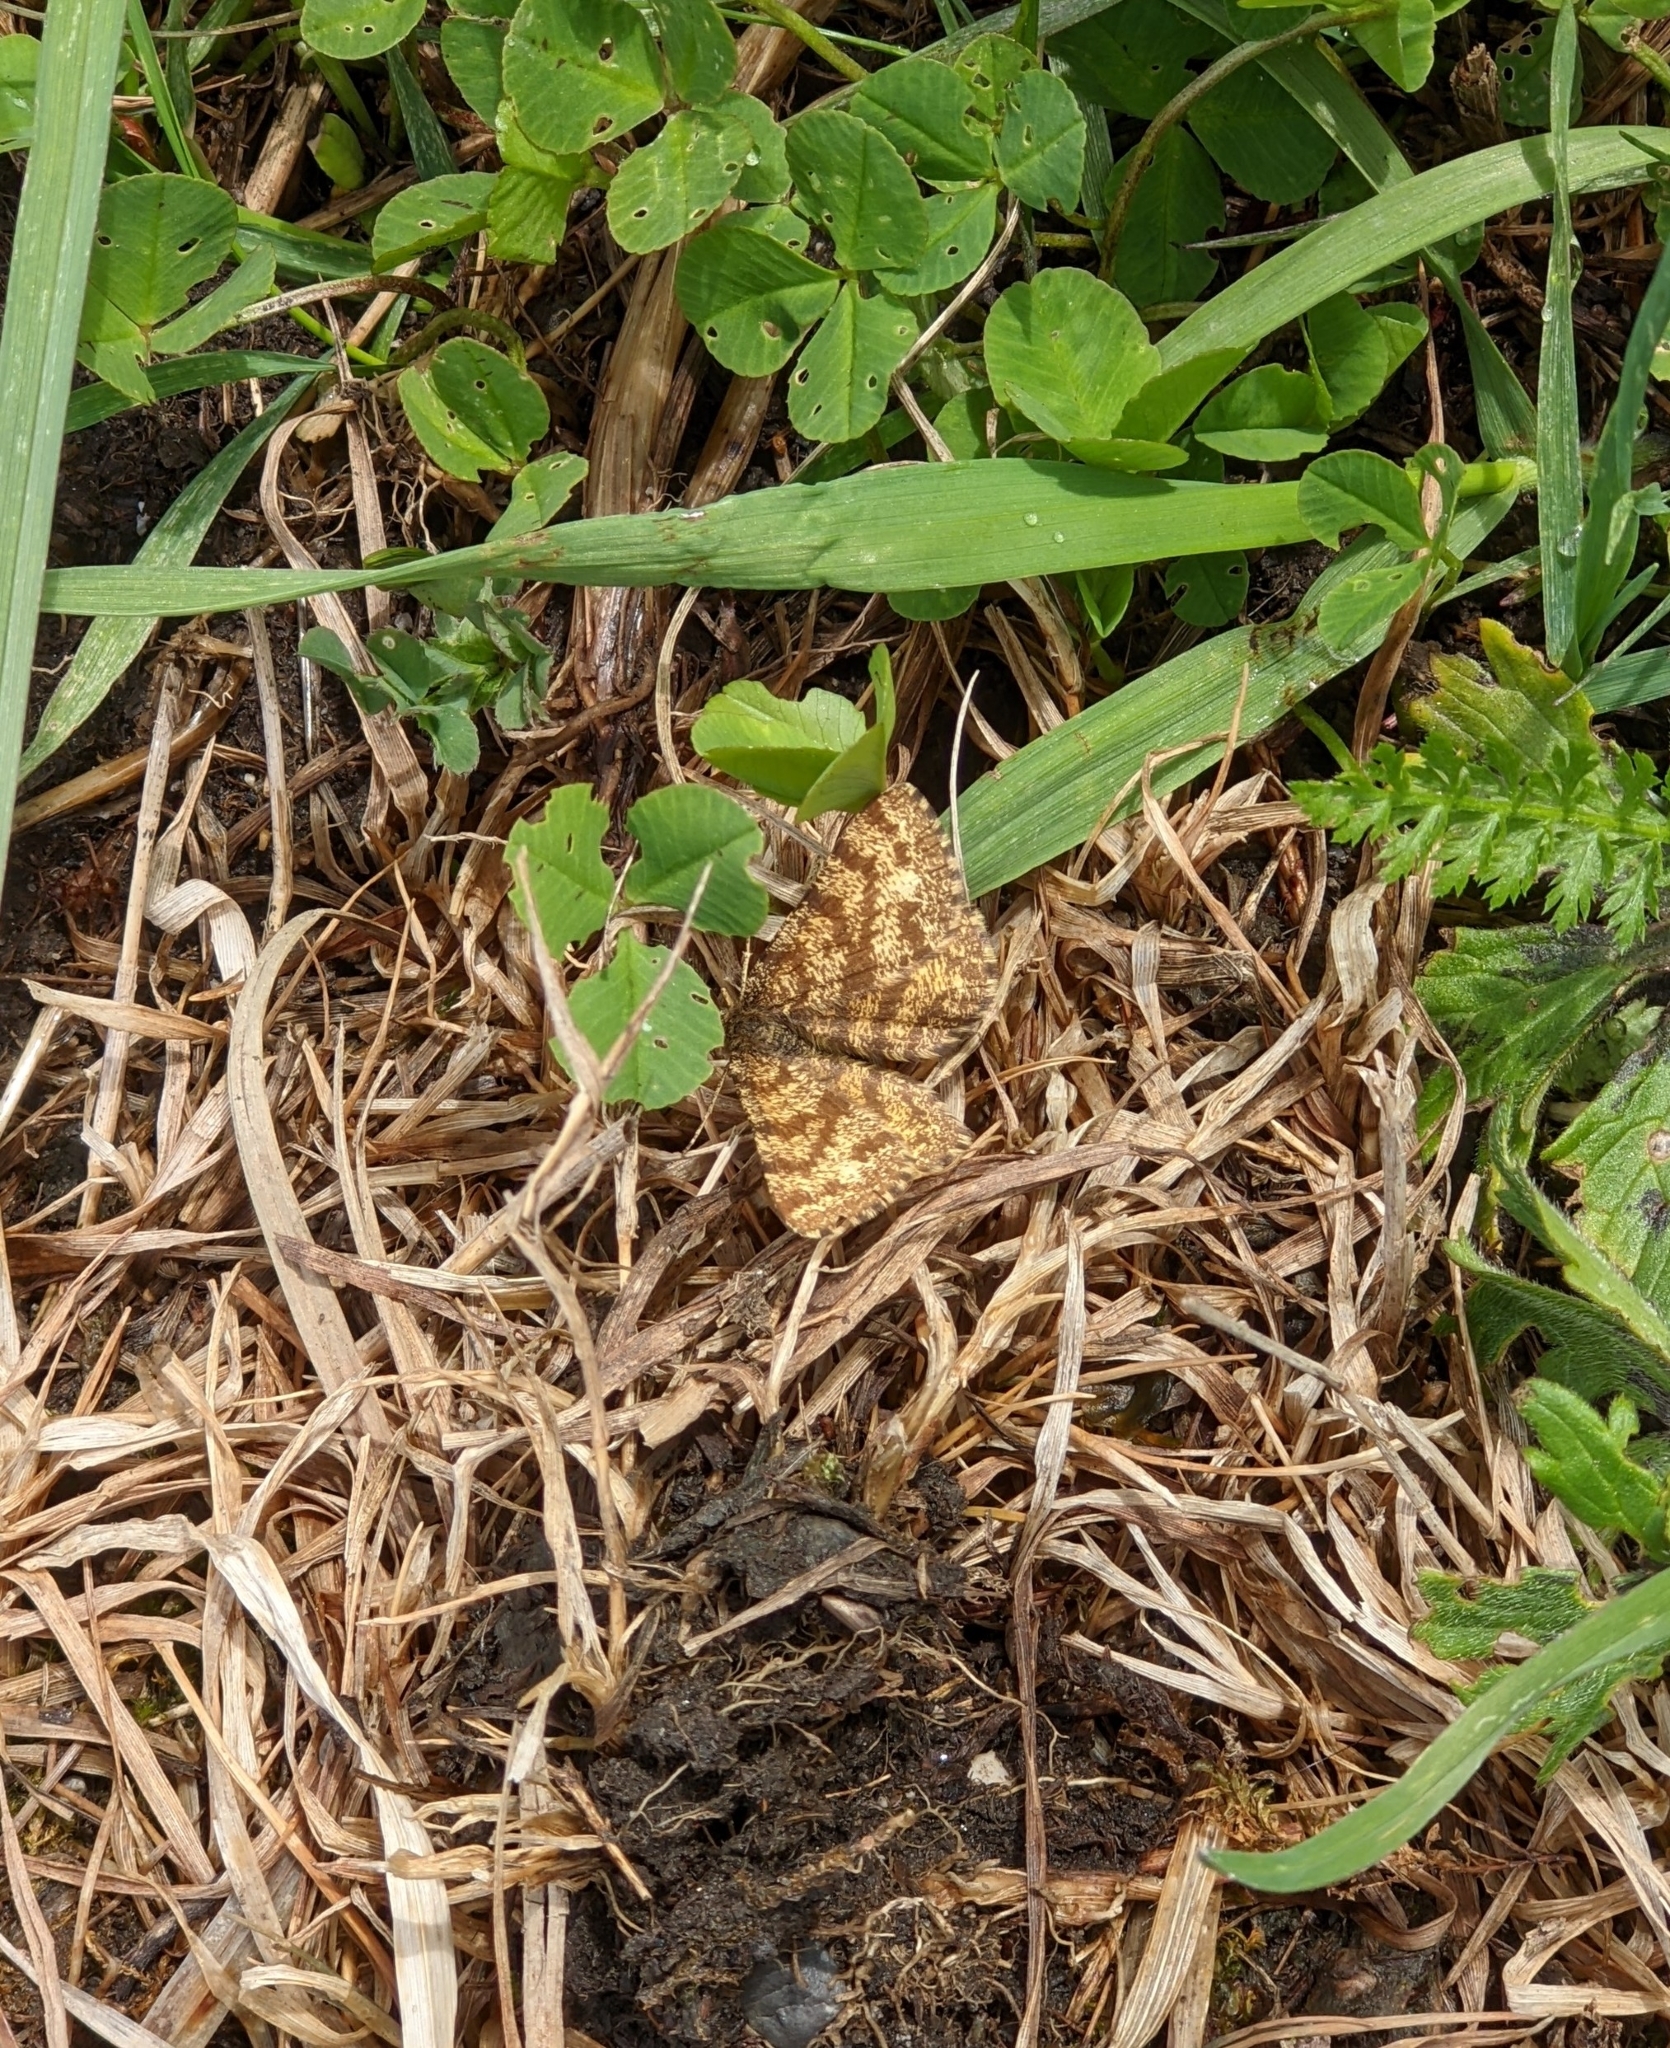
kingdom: Animalia
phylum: Arthropoda
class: Insecta
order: Lepidoptera
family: Geometridae
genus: Ematurga
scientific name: Ematurga atomaria
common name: Common heath
